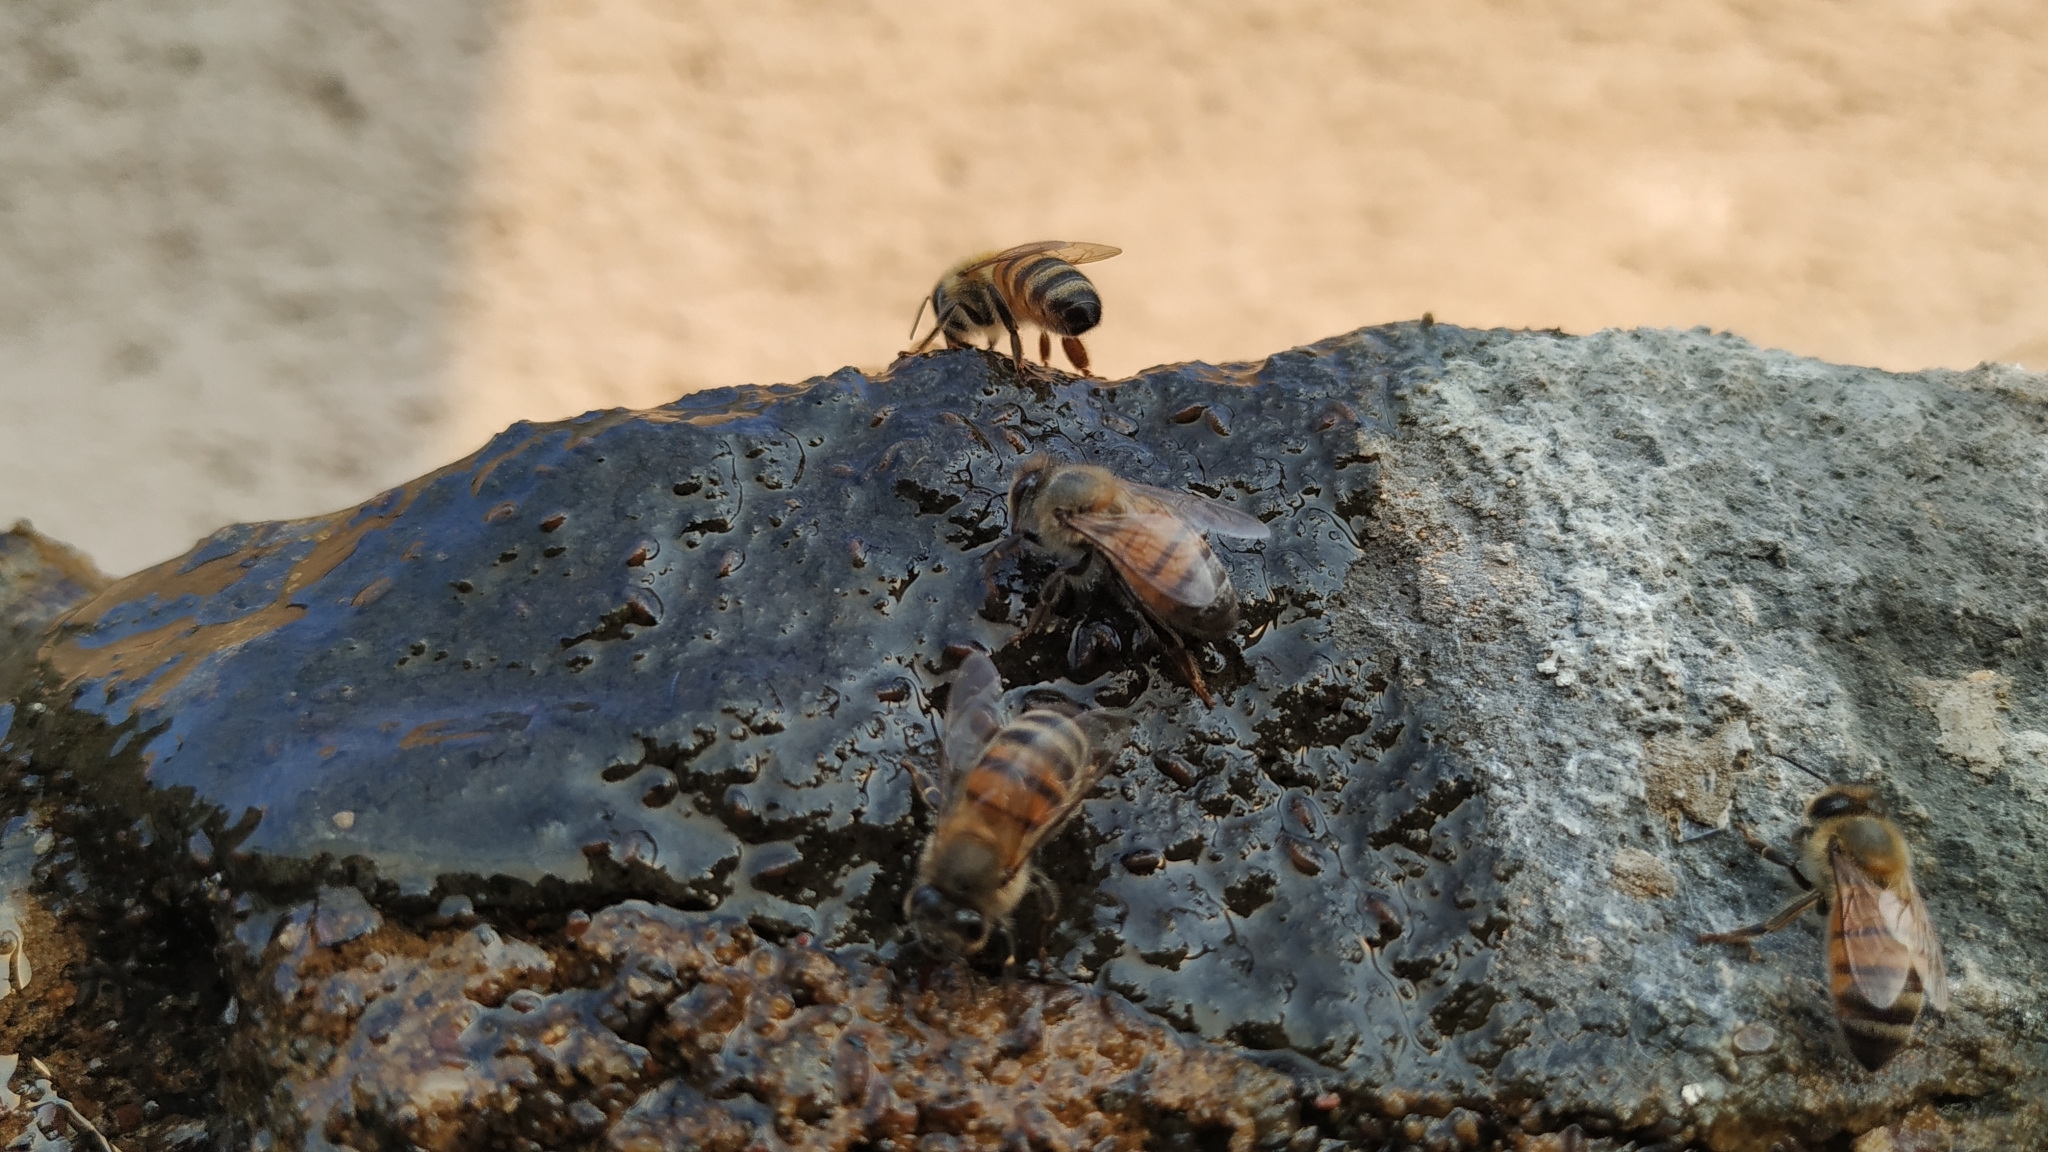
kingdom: Animalia
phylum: Arthropoda
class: Insecta
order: Hymenoptera
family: Apidae
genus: Apis
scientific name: Apis mellifera
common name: Honey bee
